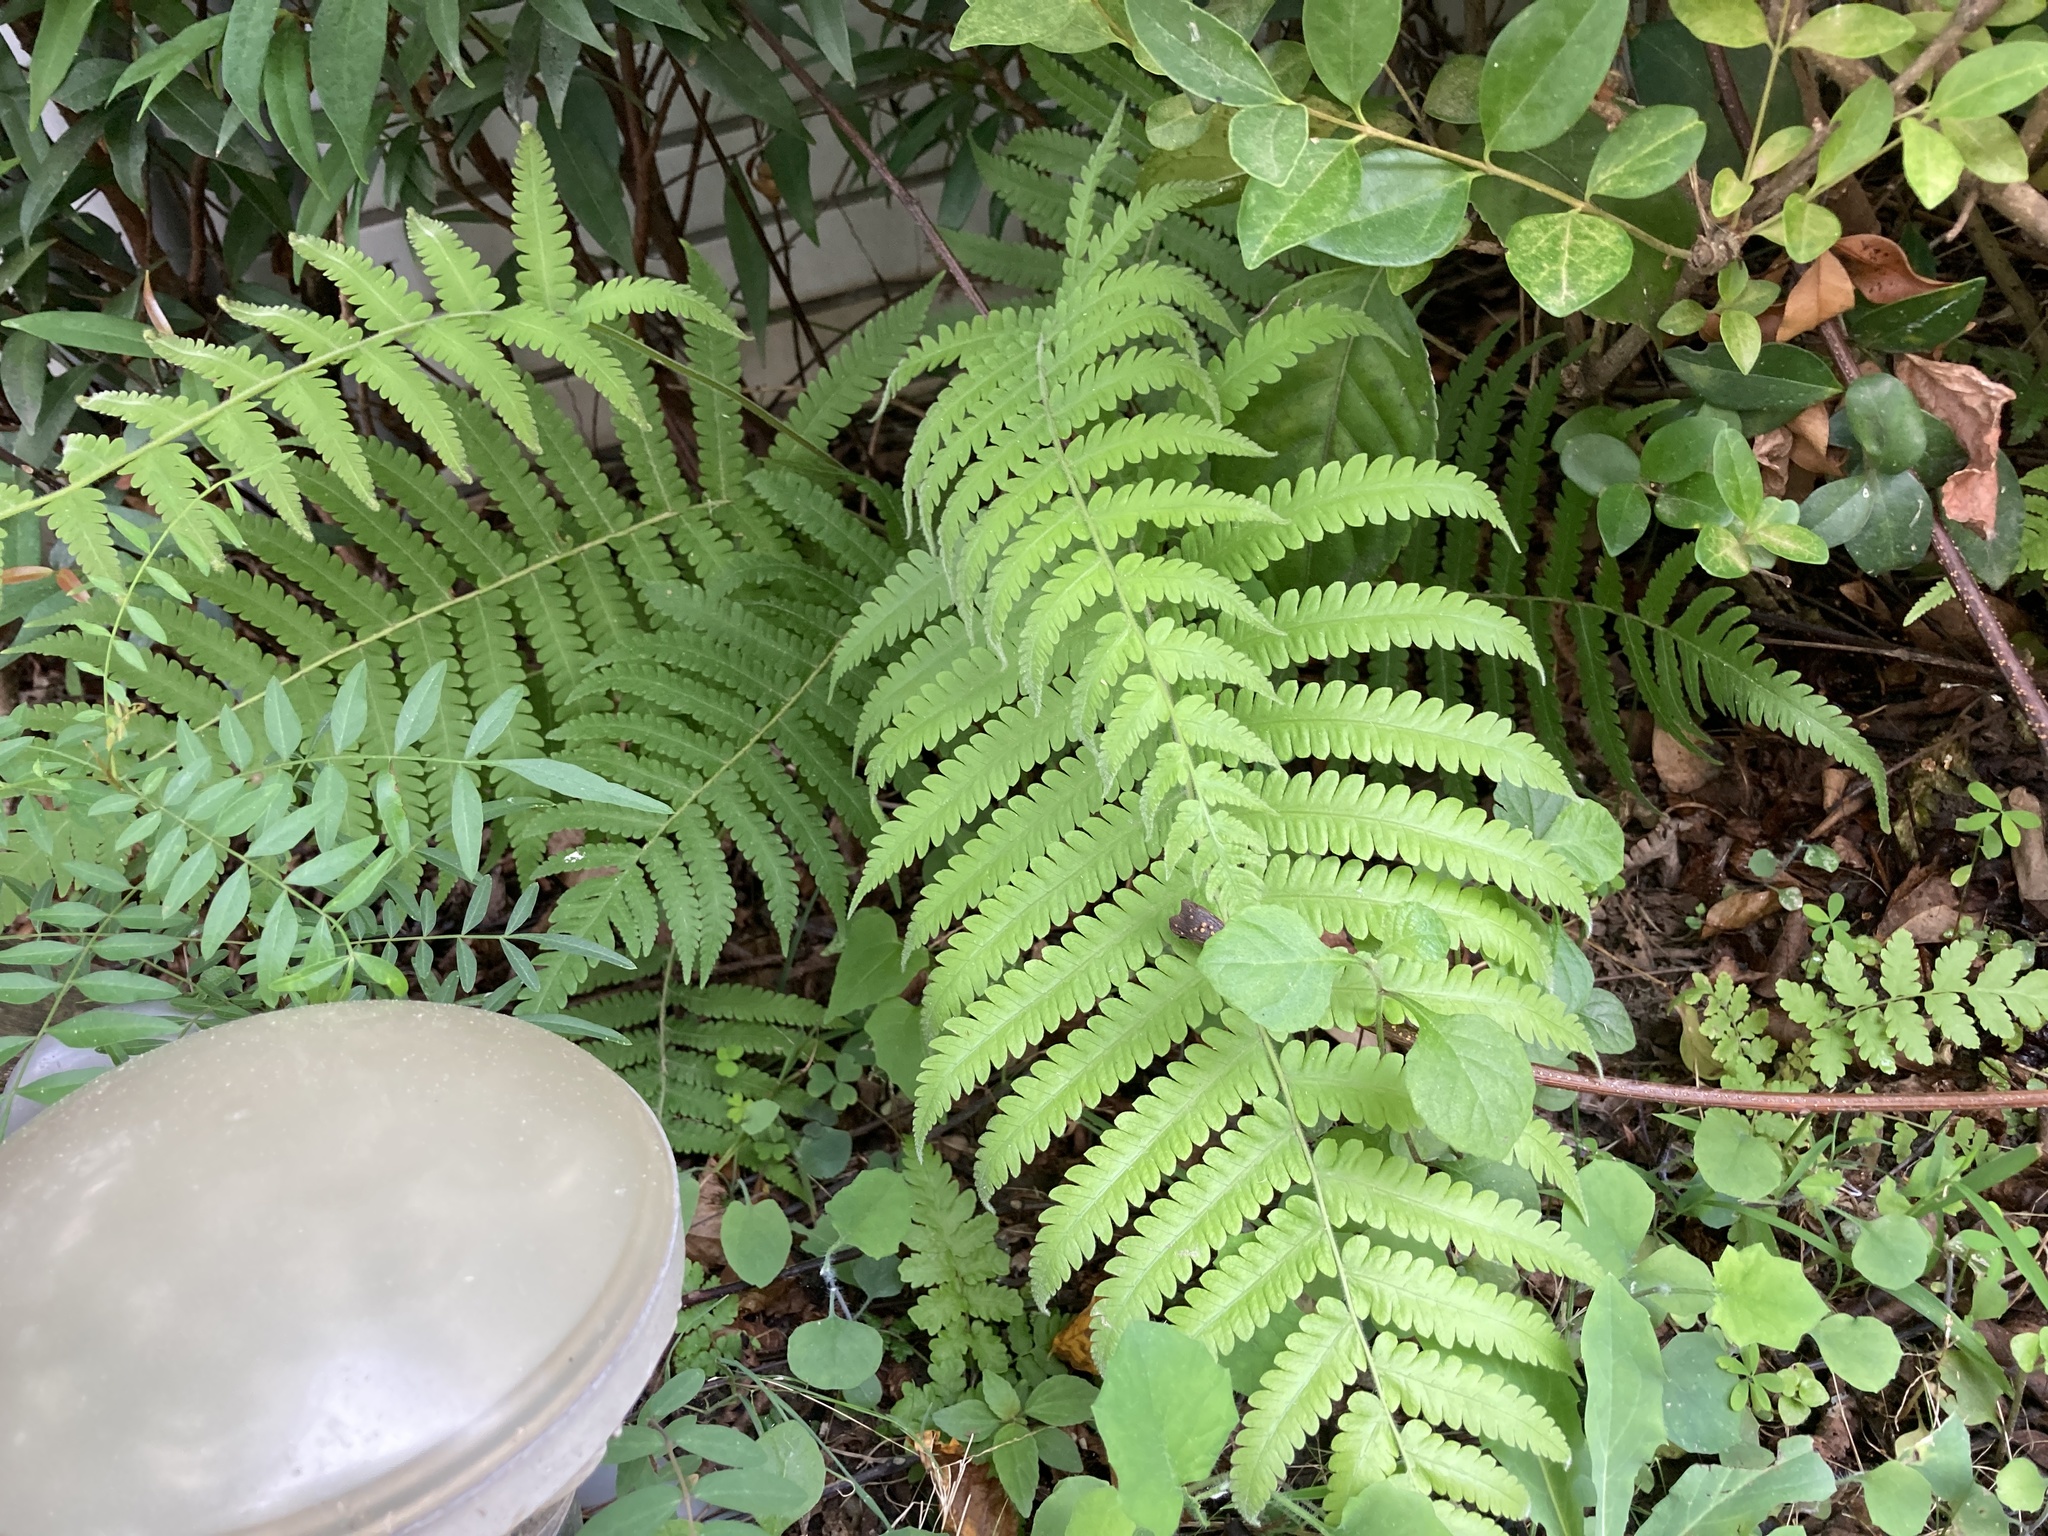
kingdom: Plantae
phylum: Tracheophyta
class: Polypodiopsida
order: Polypodiales
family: Thelypteridaceae
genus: Christella
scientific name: Christella parasitica
